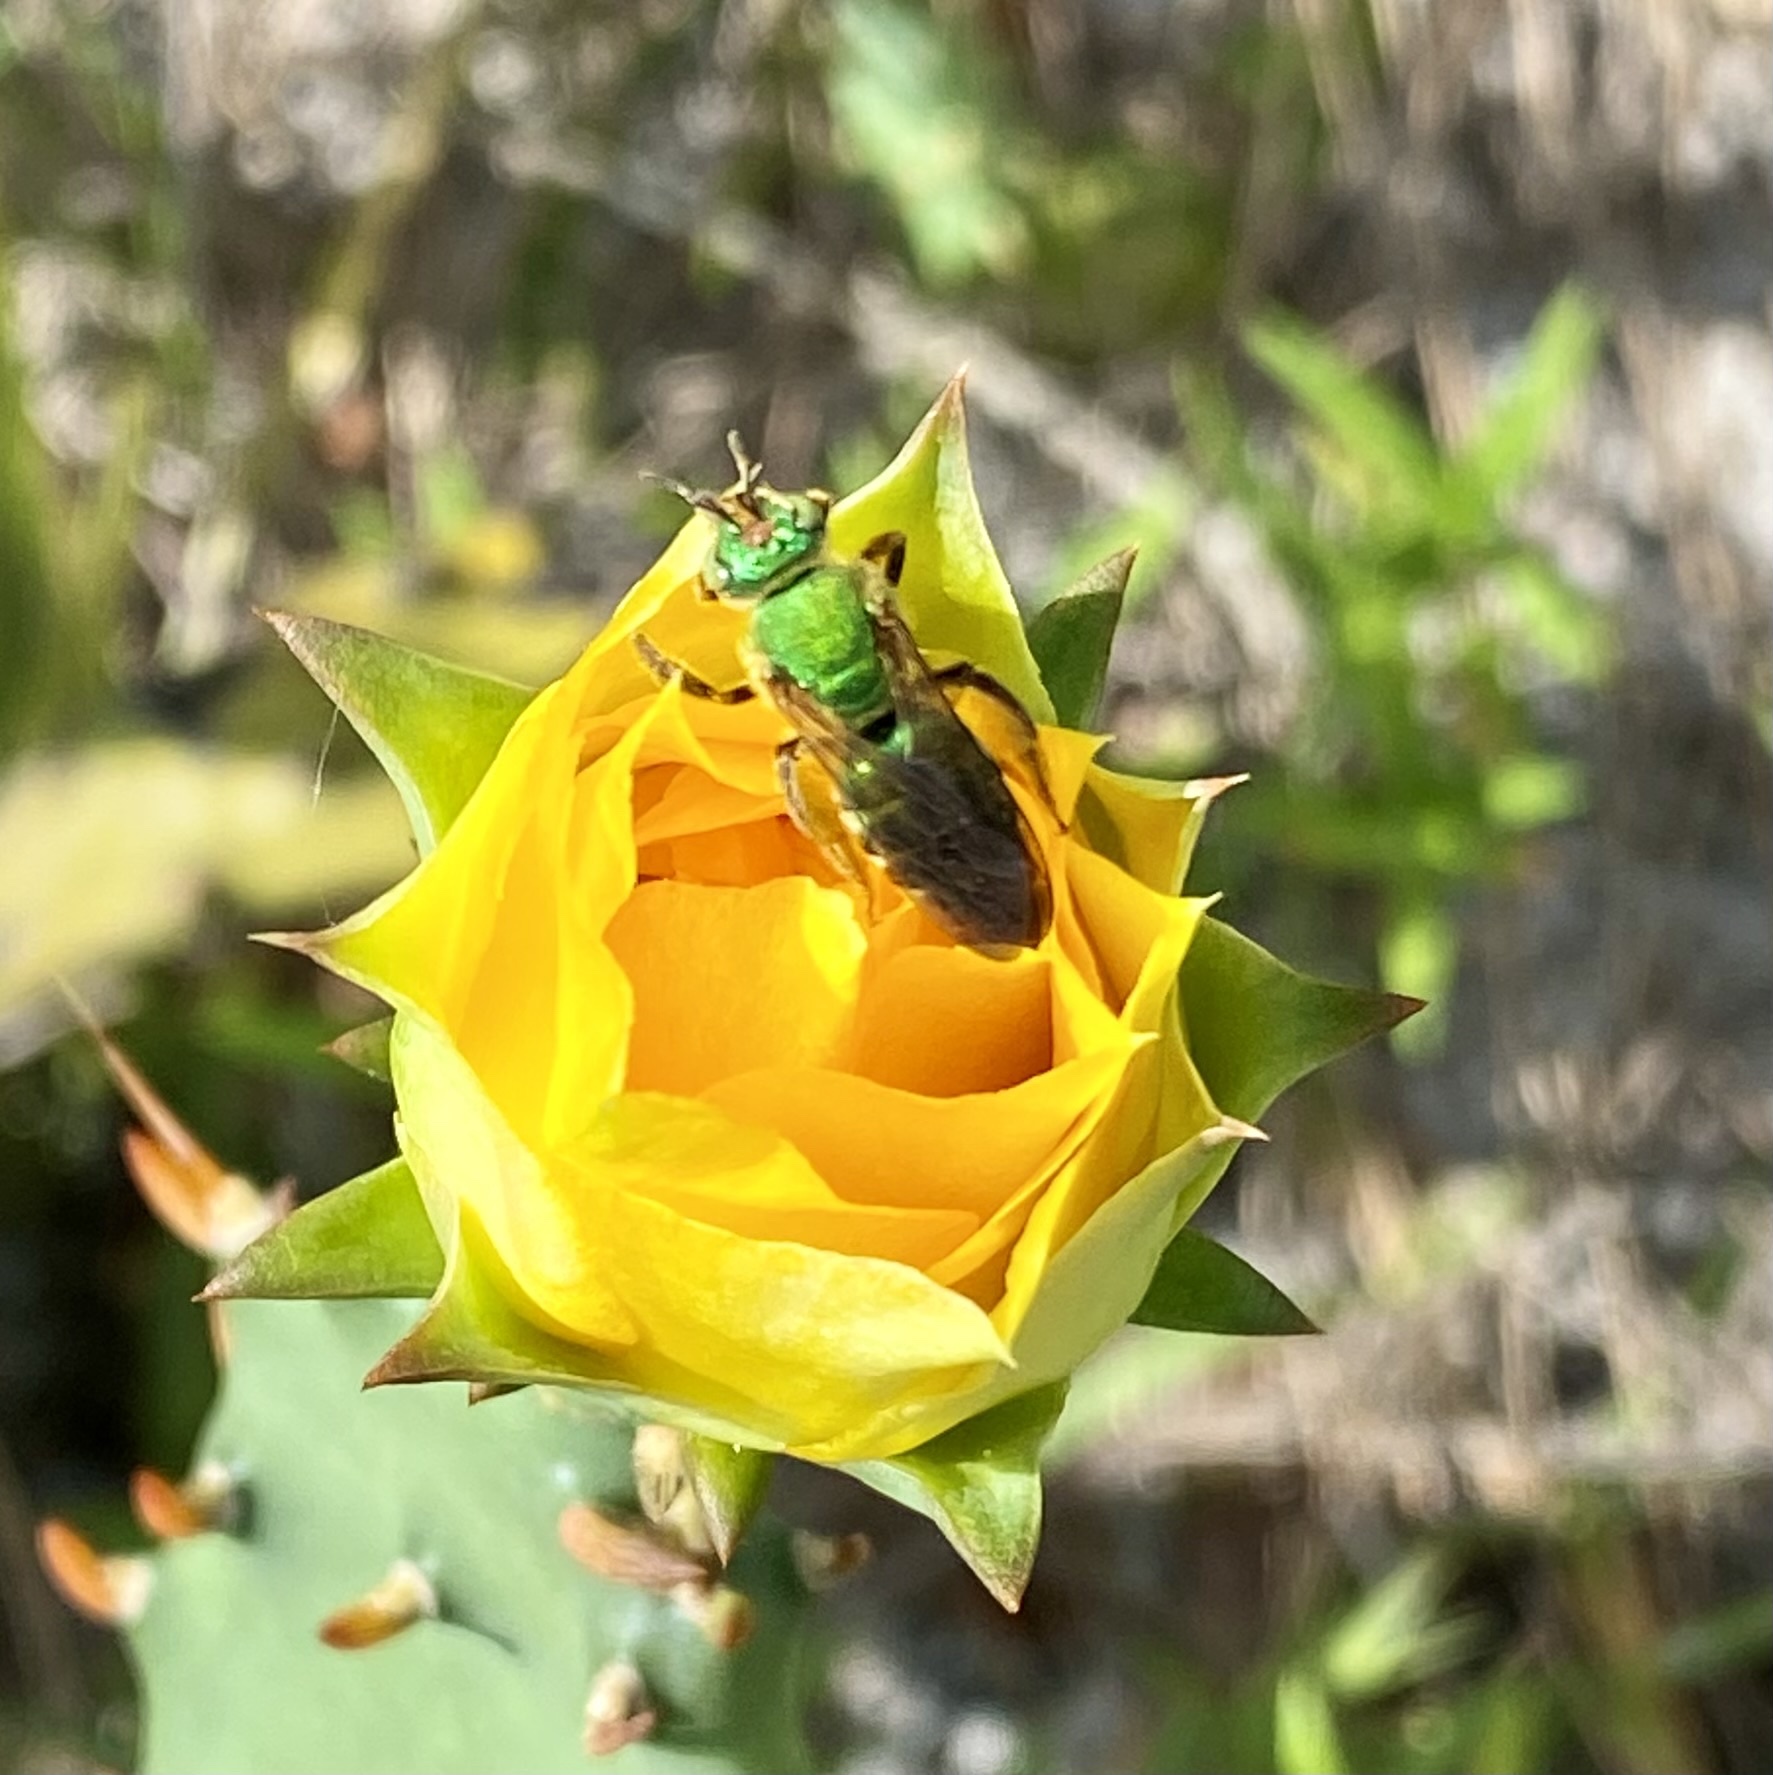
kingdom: Animalia
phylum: Arthropoda
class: Insecta
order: Hymenoptera
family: Halictidae
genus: Agapostemon
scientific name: Agapostemon splendens
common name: Brown-winged striped sweat bee
